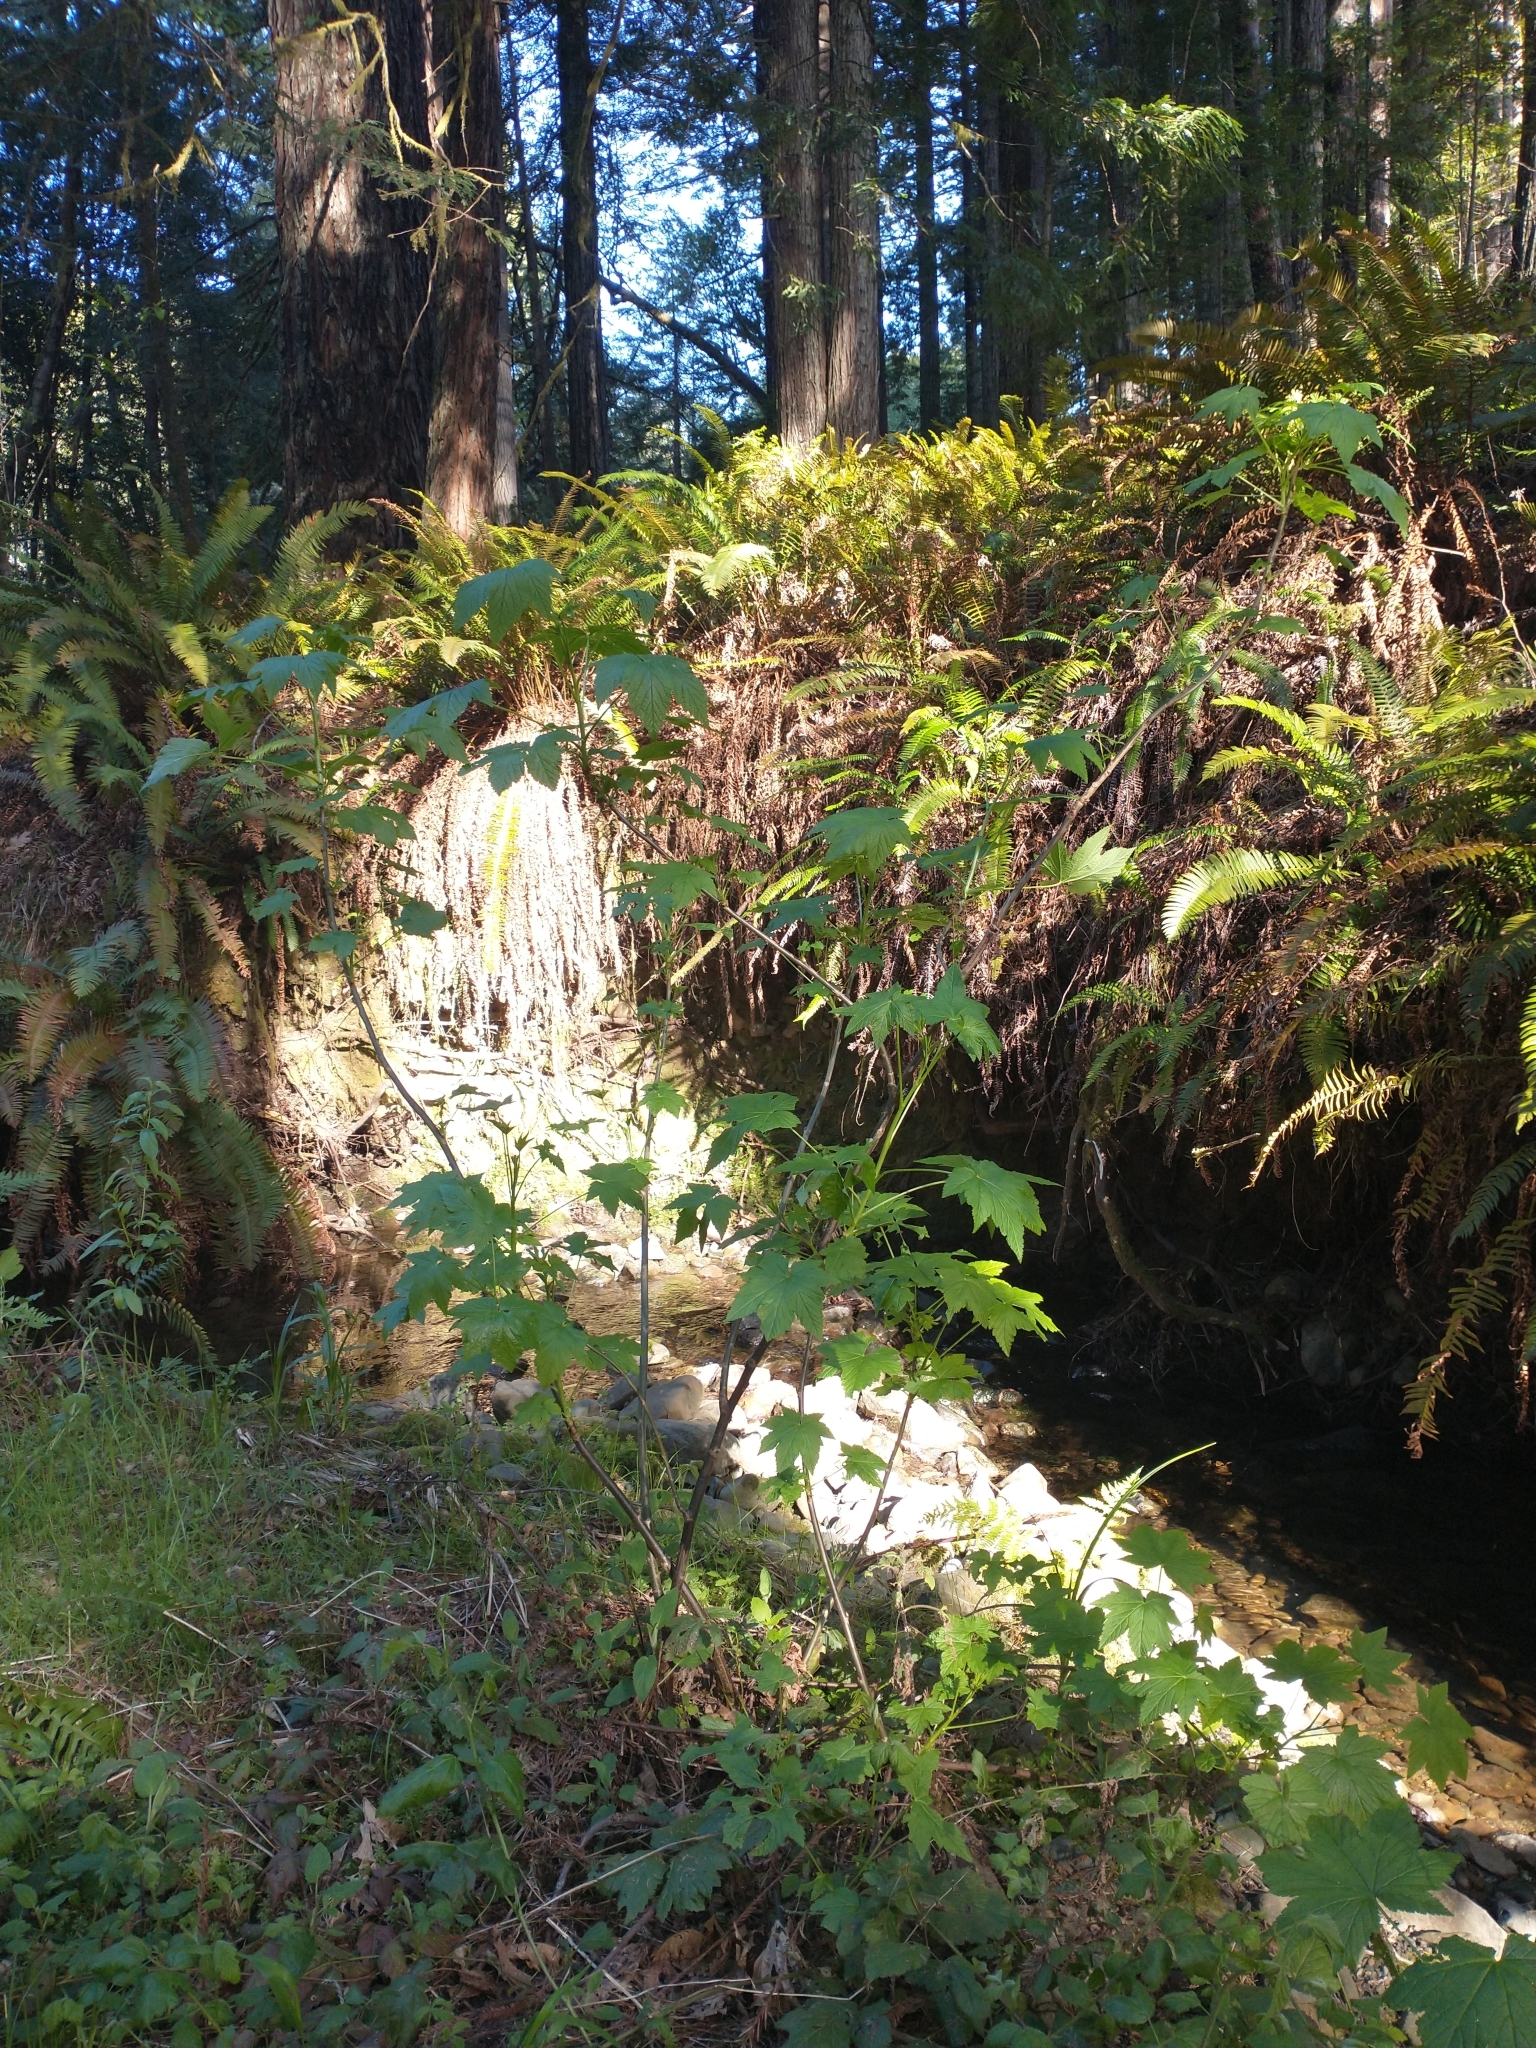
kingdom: Plantae
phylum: Tracheophyta
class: Magnoliopsida
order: Saxifragales
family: Grossulariaceae
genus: Ribes
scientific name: Ribes bracteosum
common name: California black currant
